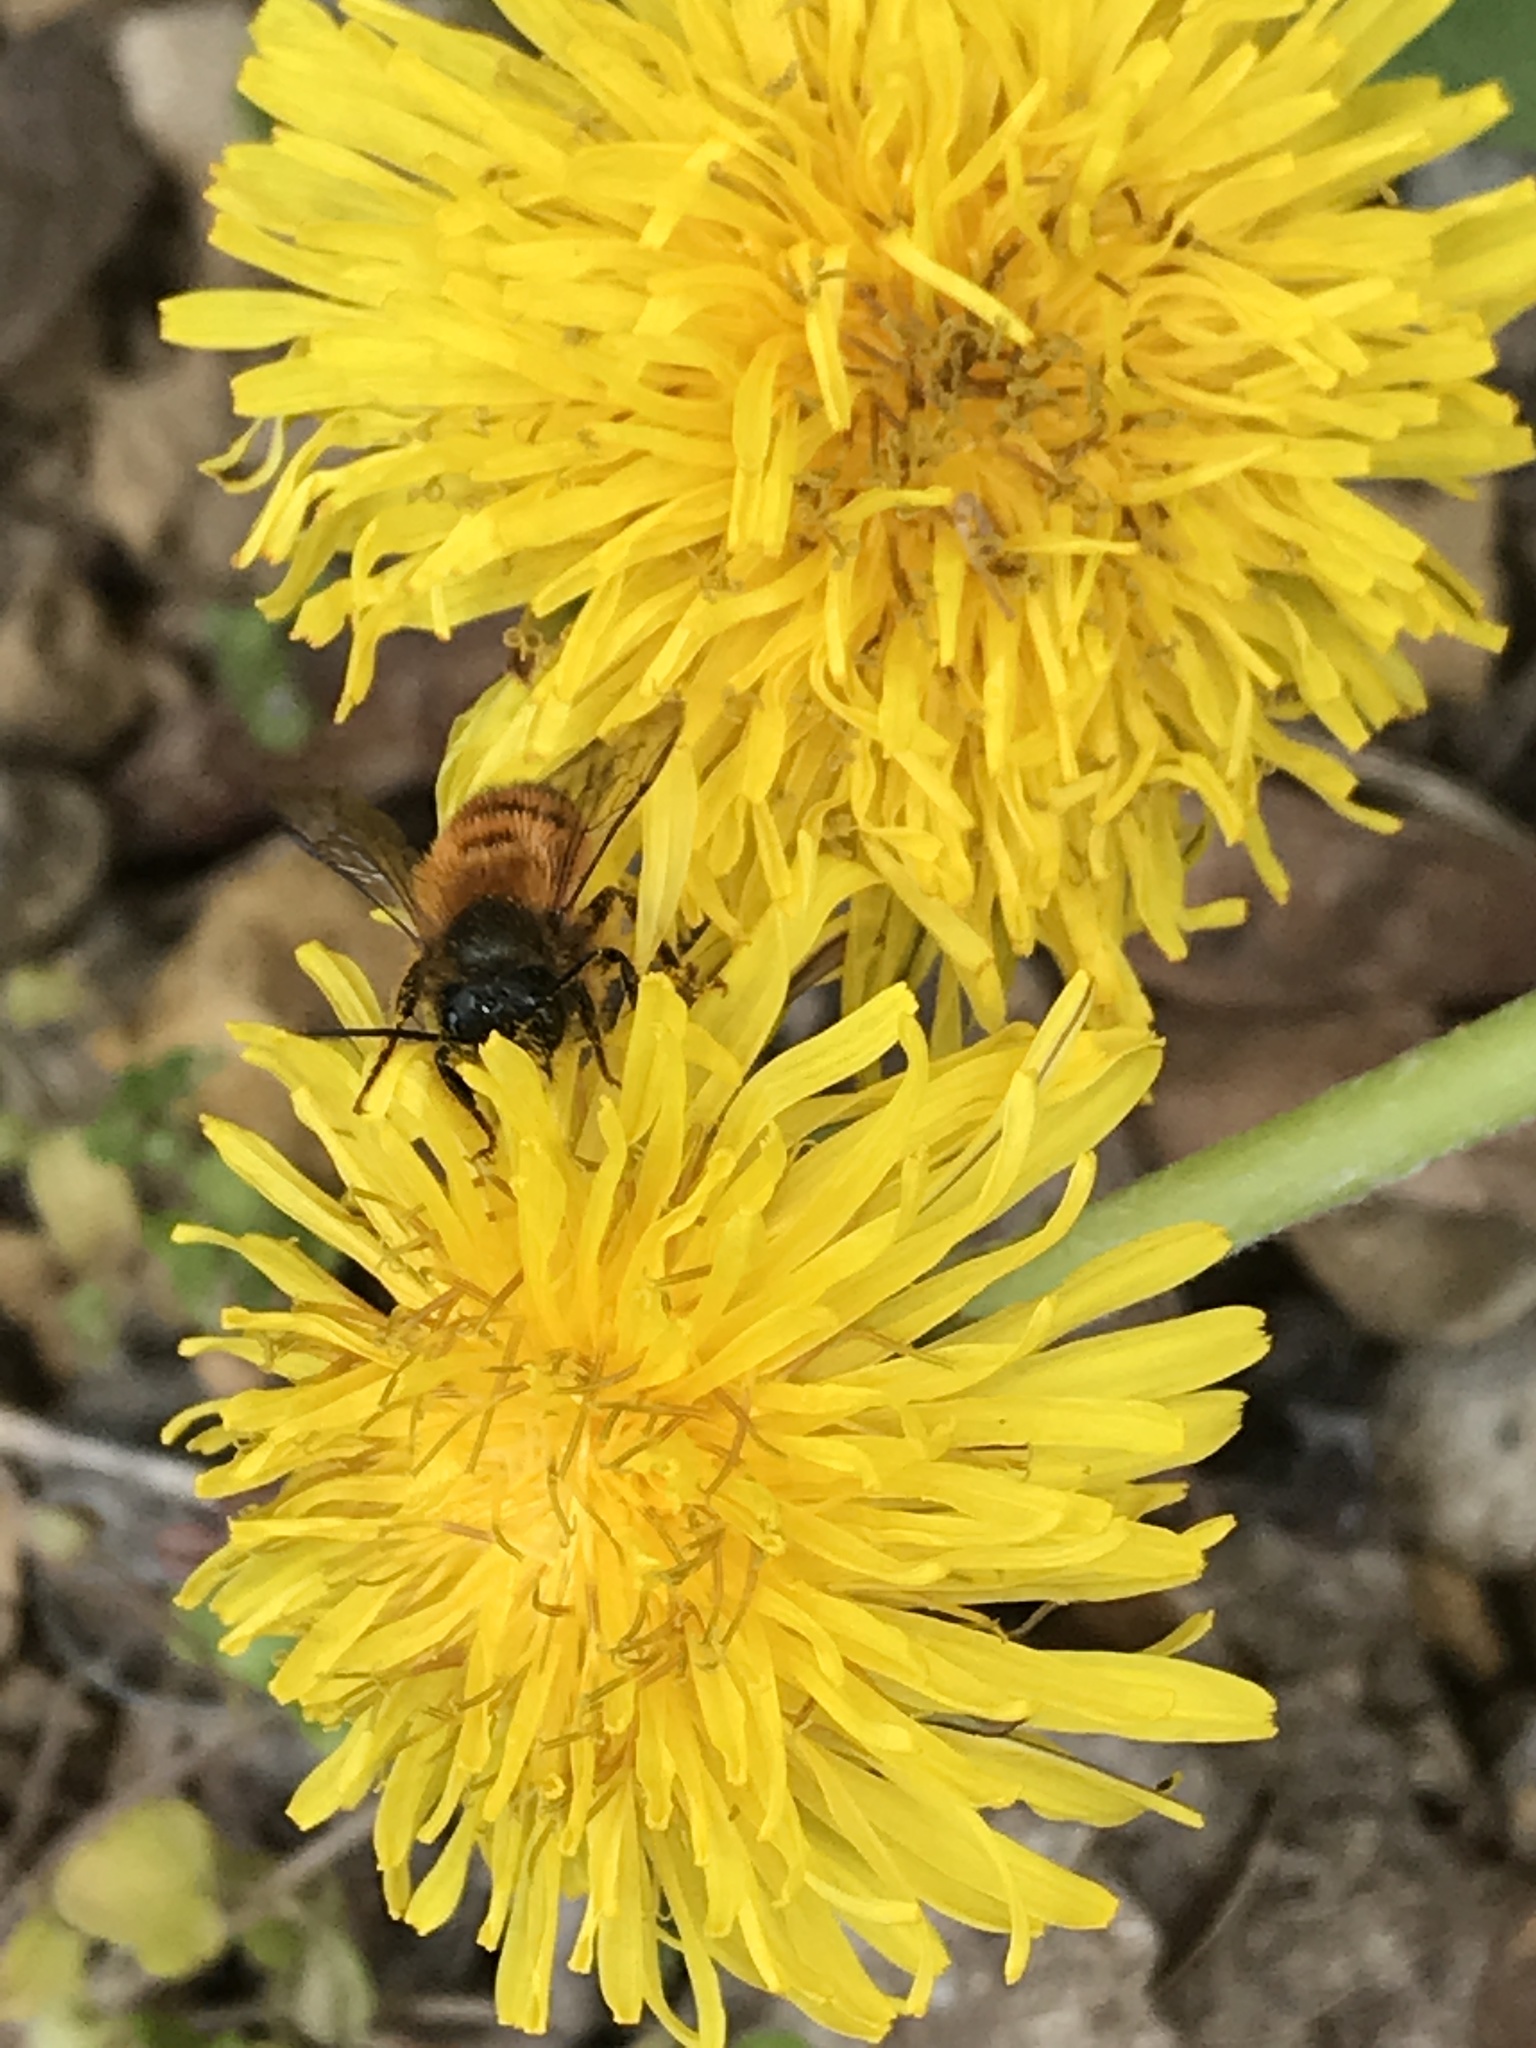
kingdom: Animalia
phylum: Arthropoda
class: Insecta
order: Hymenoptera
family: Megachilidae
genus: Osmia
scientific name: Osmia bicornis
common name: Red mason bee
